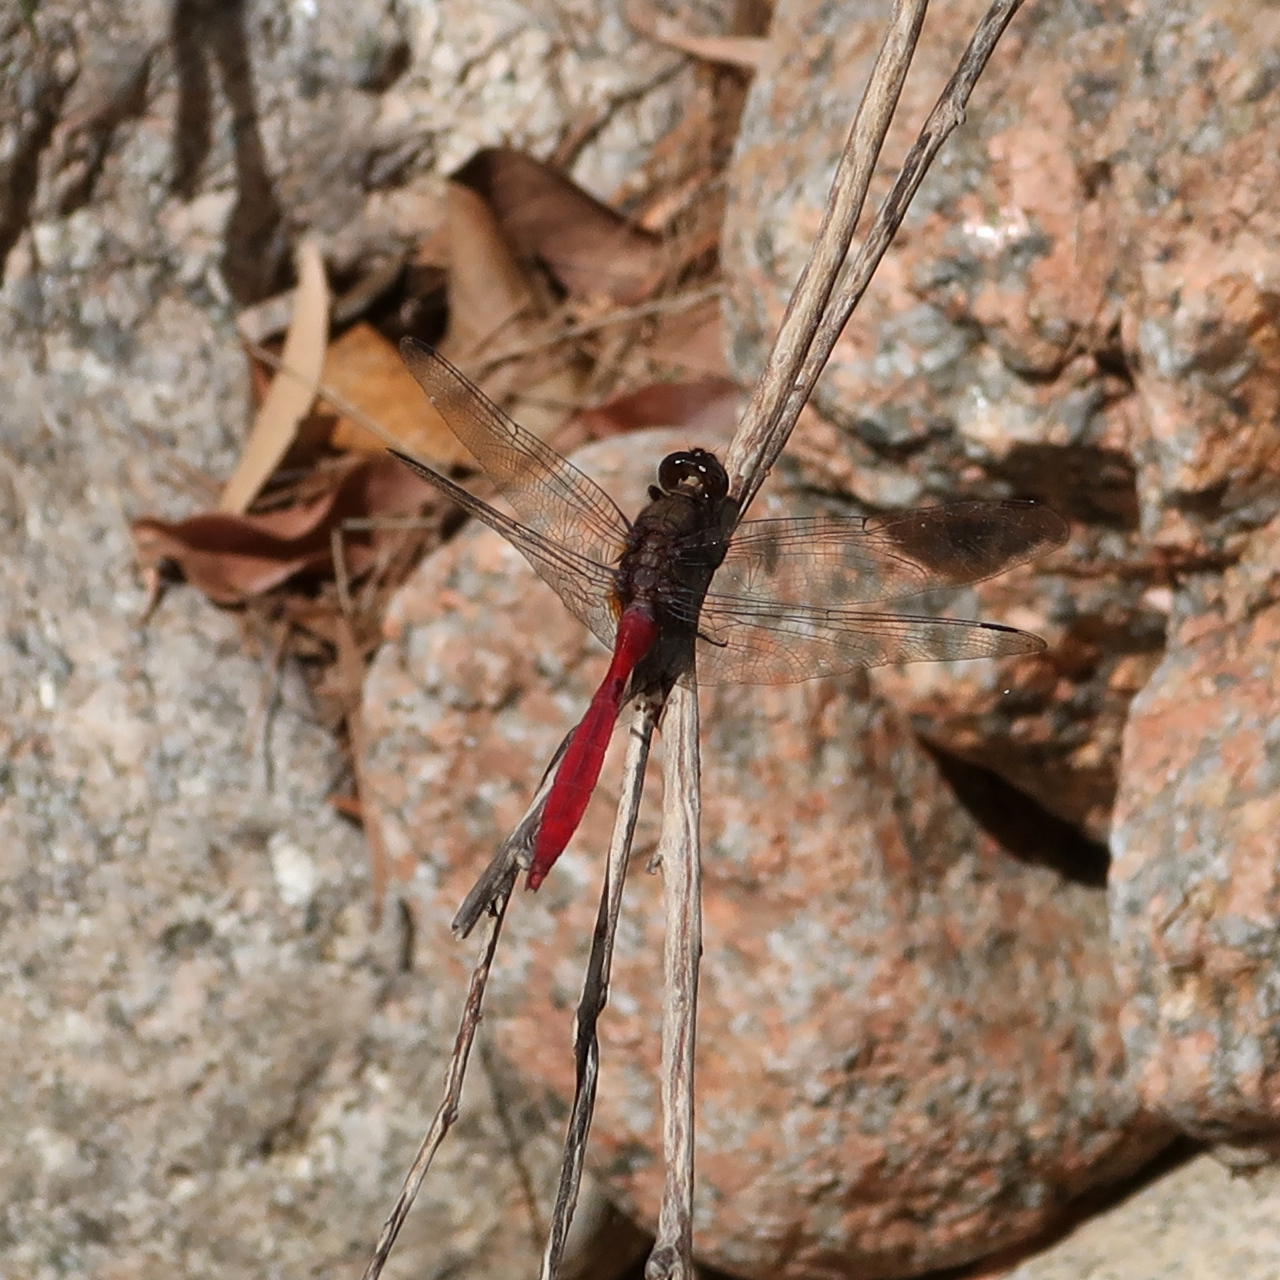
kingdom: Animalia
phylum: Arthropoda
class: Insecta
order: Odonata
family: Libellulidae
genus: Orthetrum
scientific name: Orthetrum villosovittatum
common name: Firery skimmer
